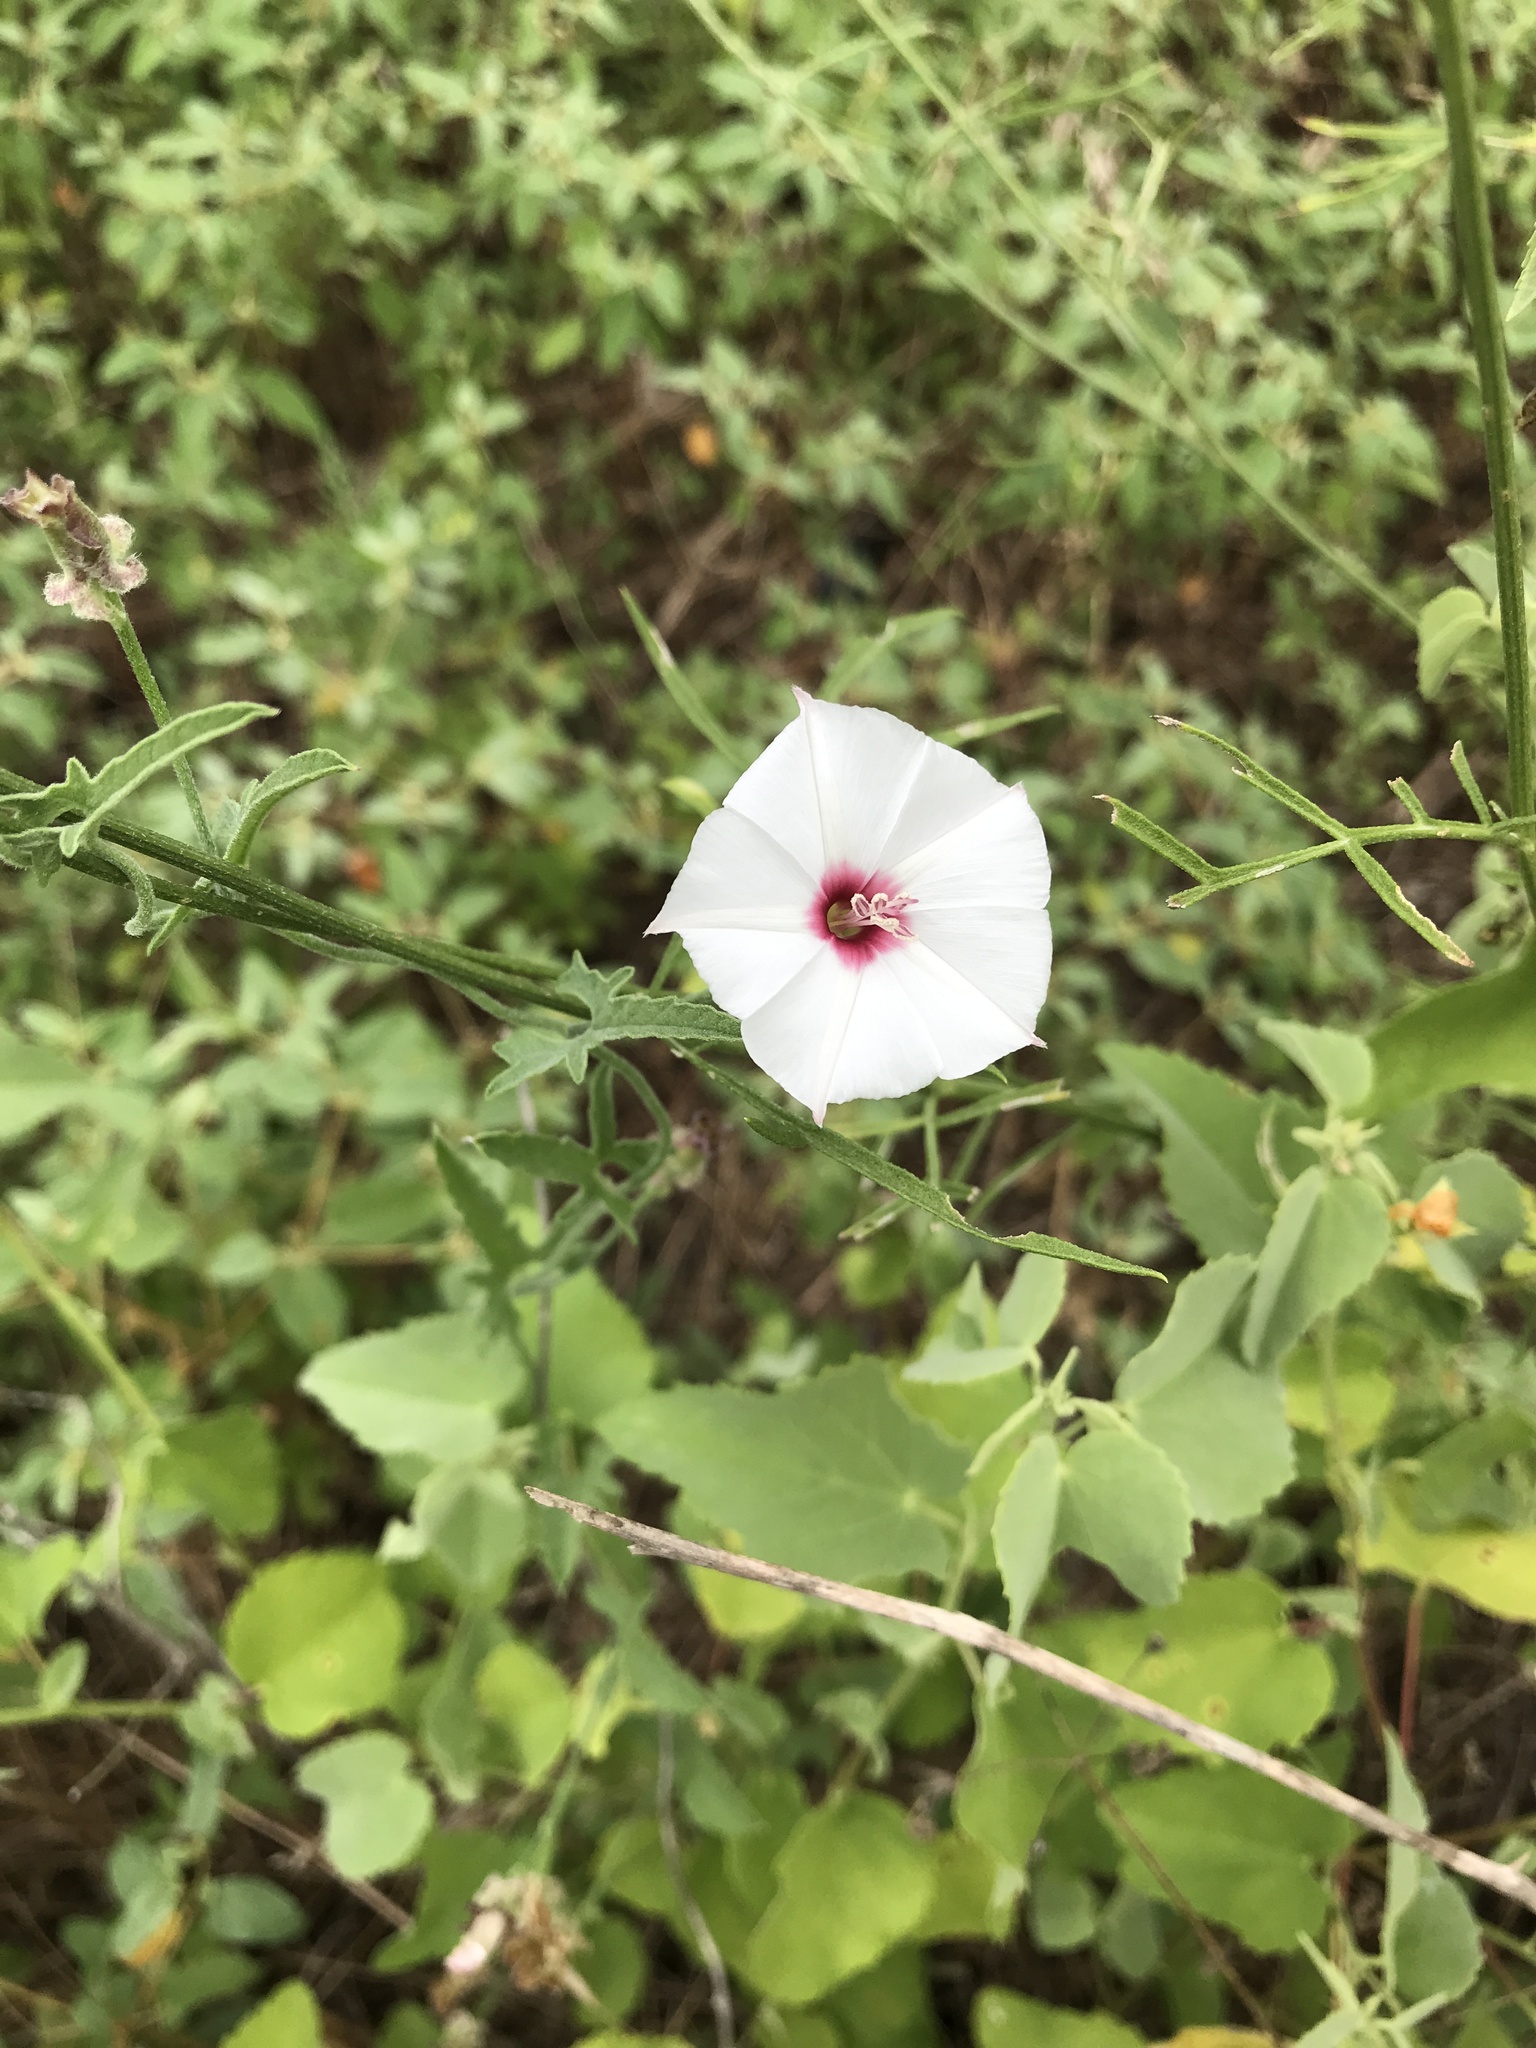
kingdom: Plantae
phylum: Tracheophyta
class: Magnoliopsida
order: Solanales
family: Convolvulaceae
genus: Convolvulus
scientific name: Convolvulus equitans
